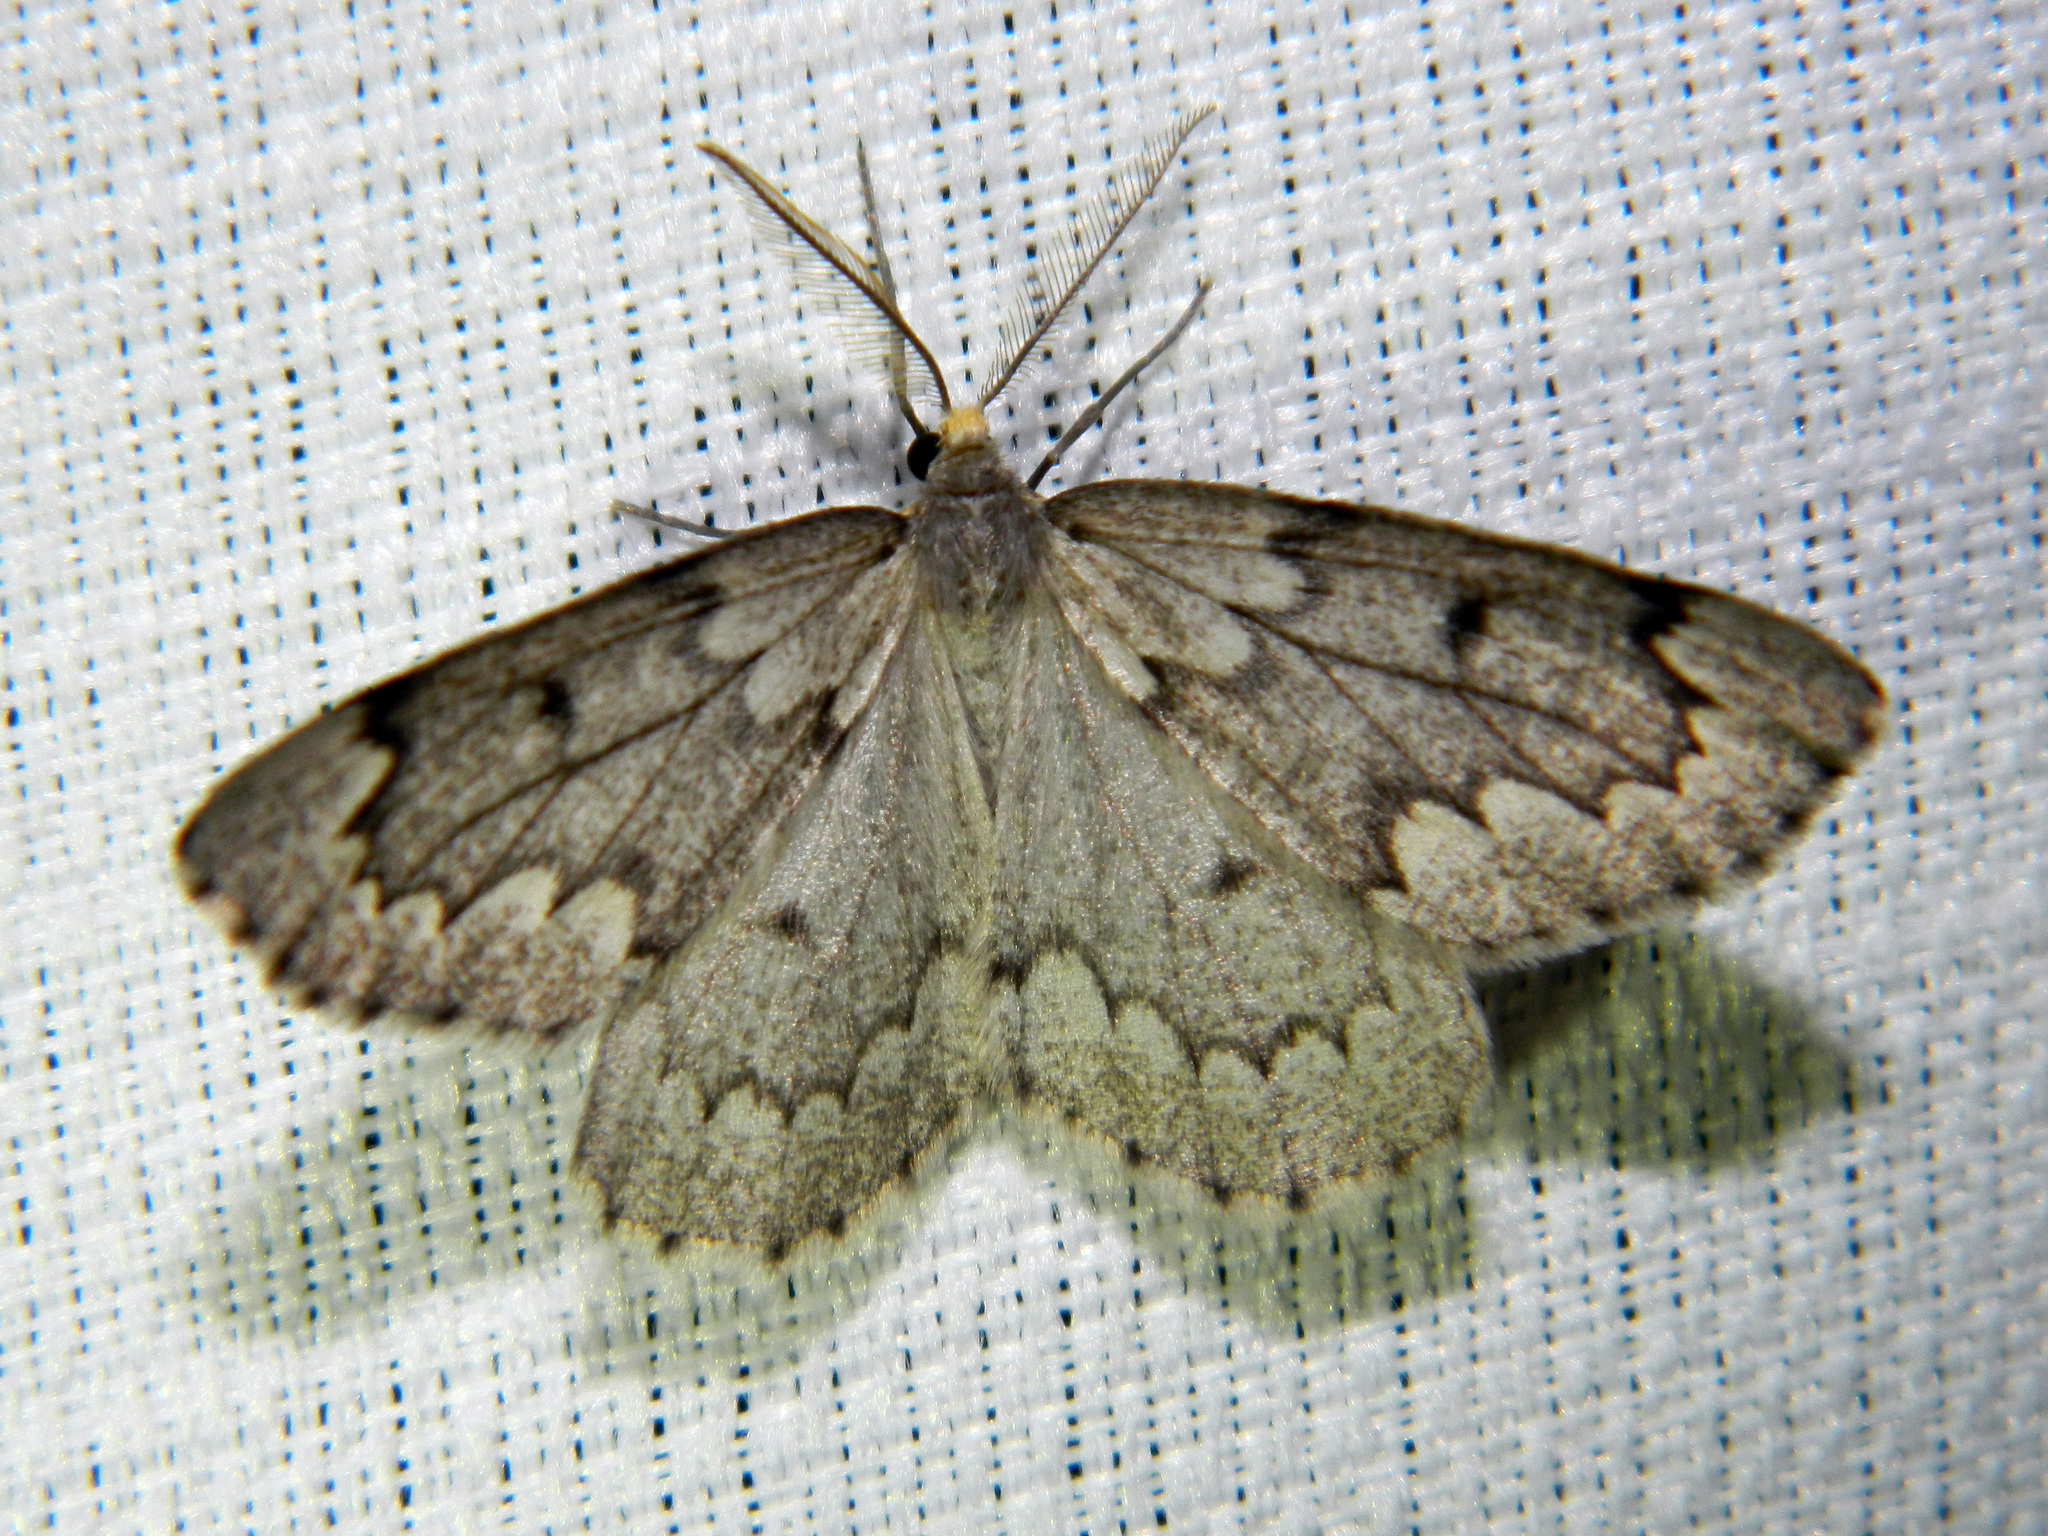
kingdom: Animalia
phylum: Arthropoda
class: Insecta
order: Lepidoptera
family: Geometridae
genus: Nepytia
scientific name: Nepytia canosaria
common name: False hemlock looper
